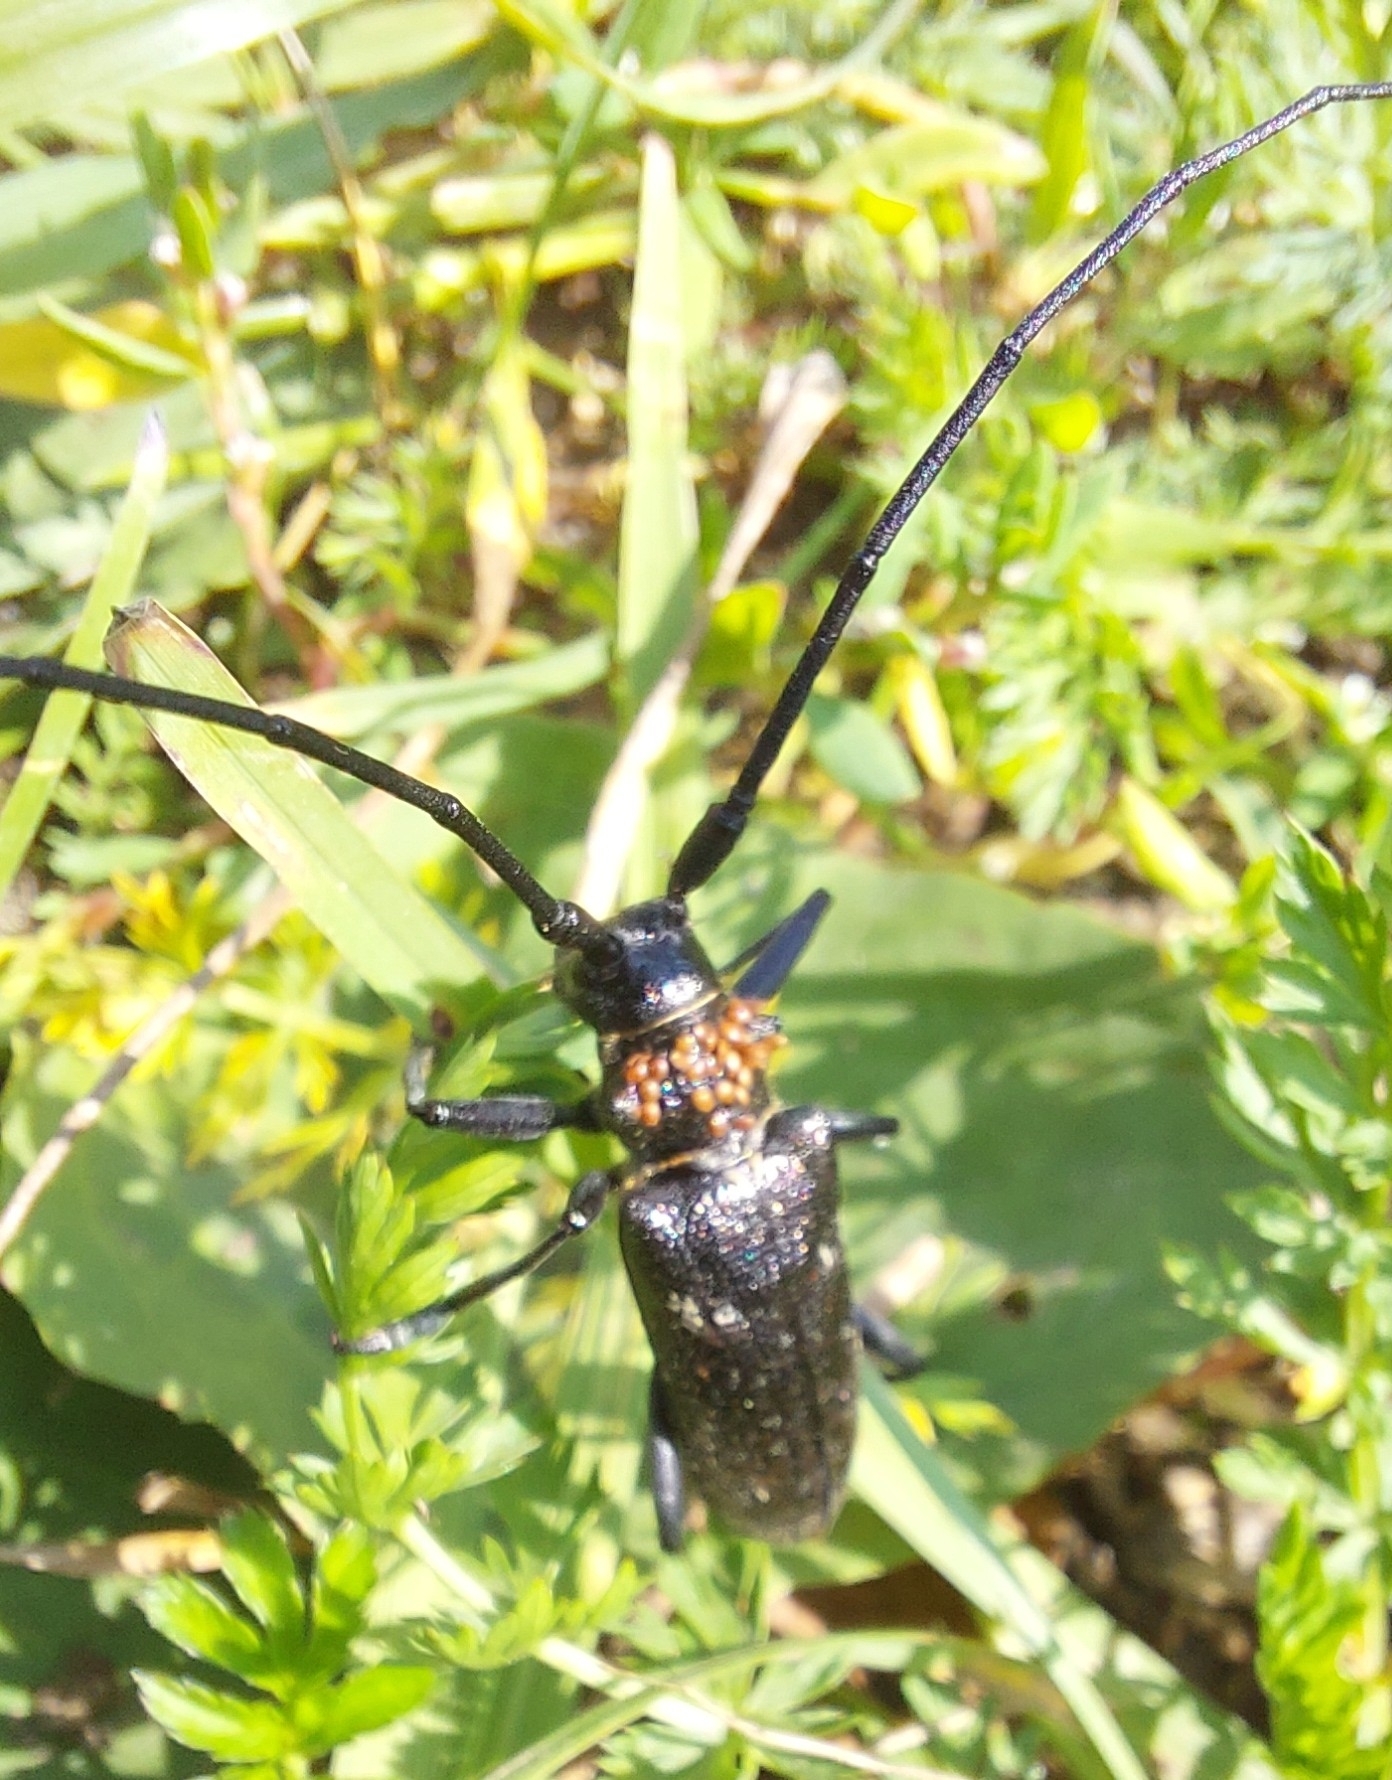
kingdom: Animalia
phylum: Arthropoda
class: Insecta
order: Coleoptera
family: Cerambycidae
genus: Monochamus
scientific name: Monochamus sartor
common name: Pine sawyer
